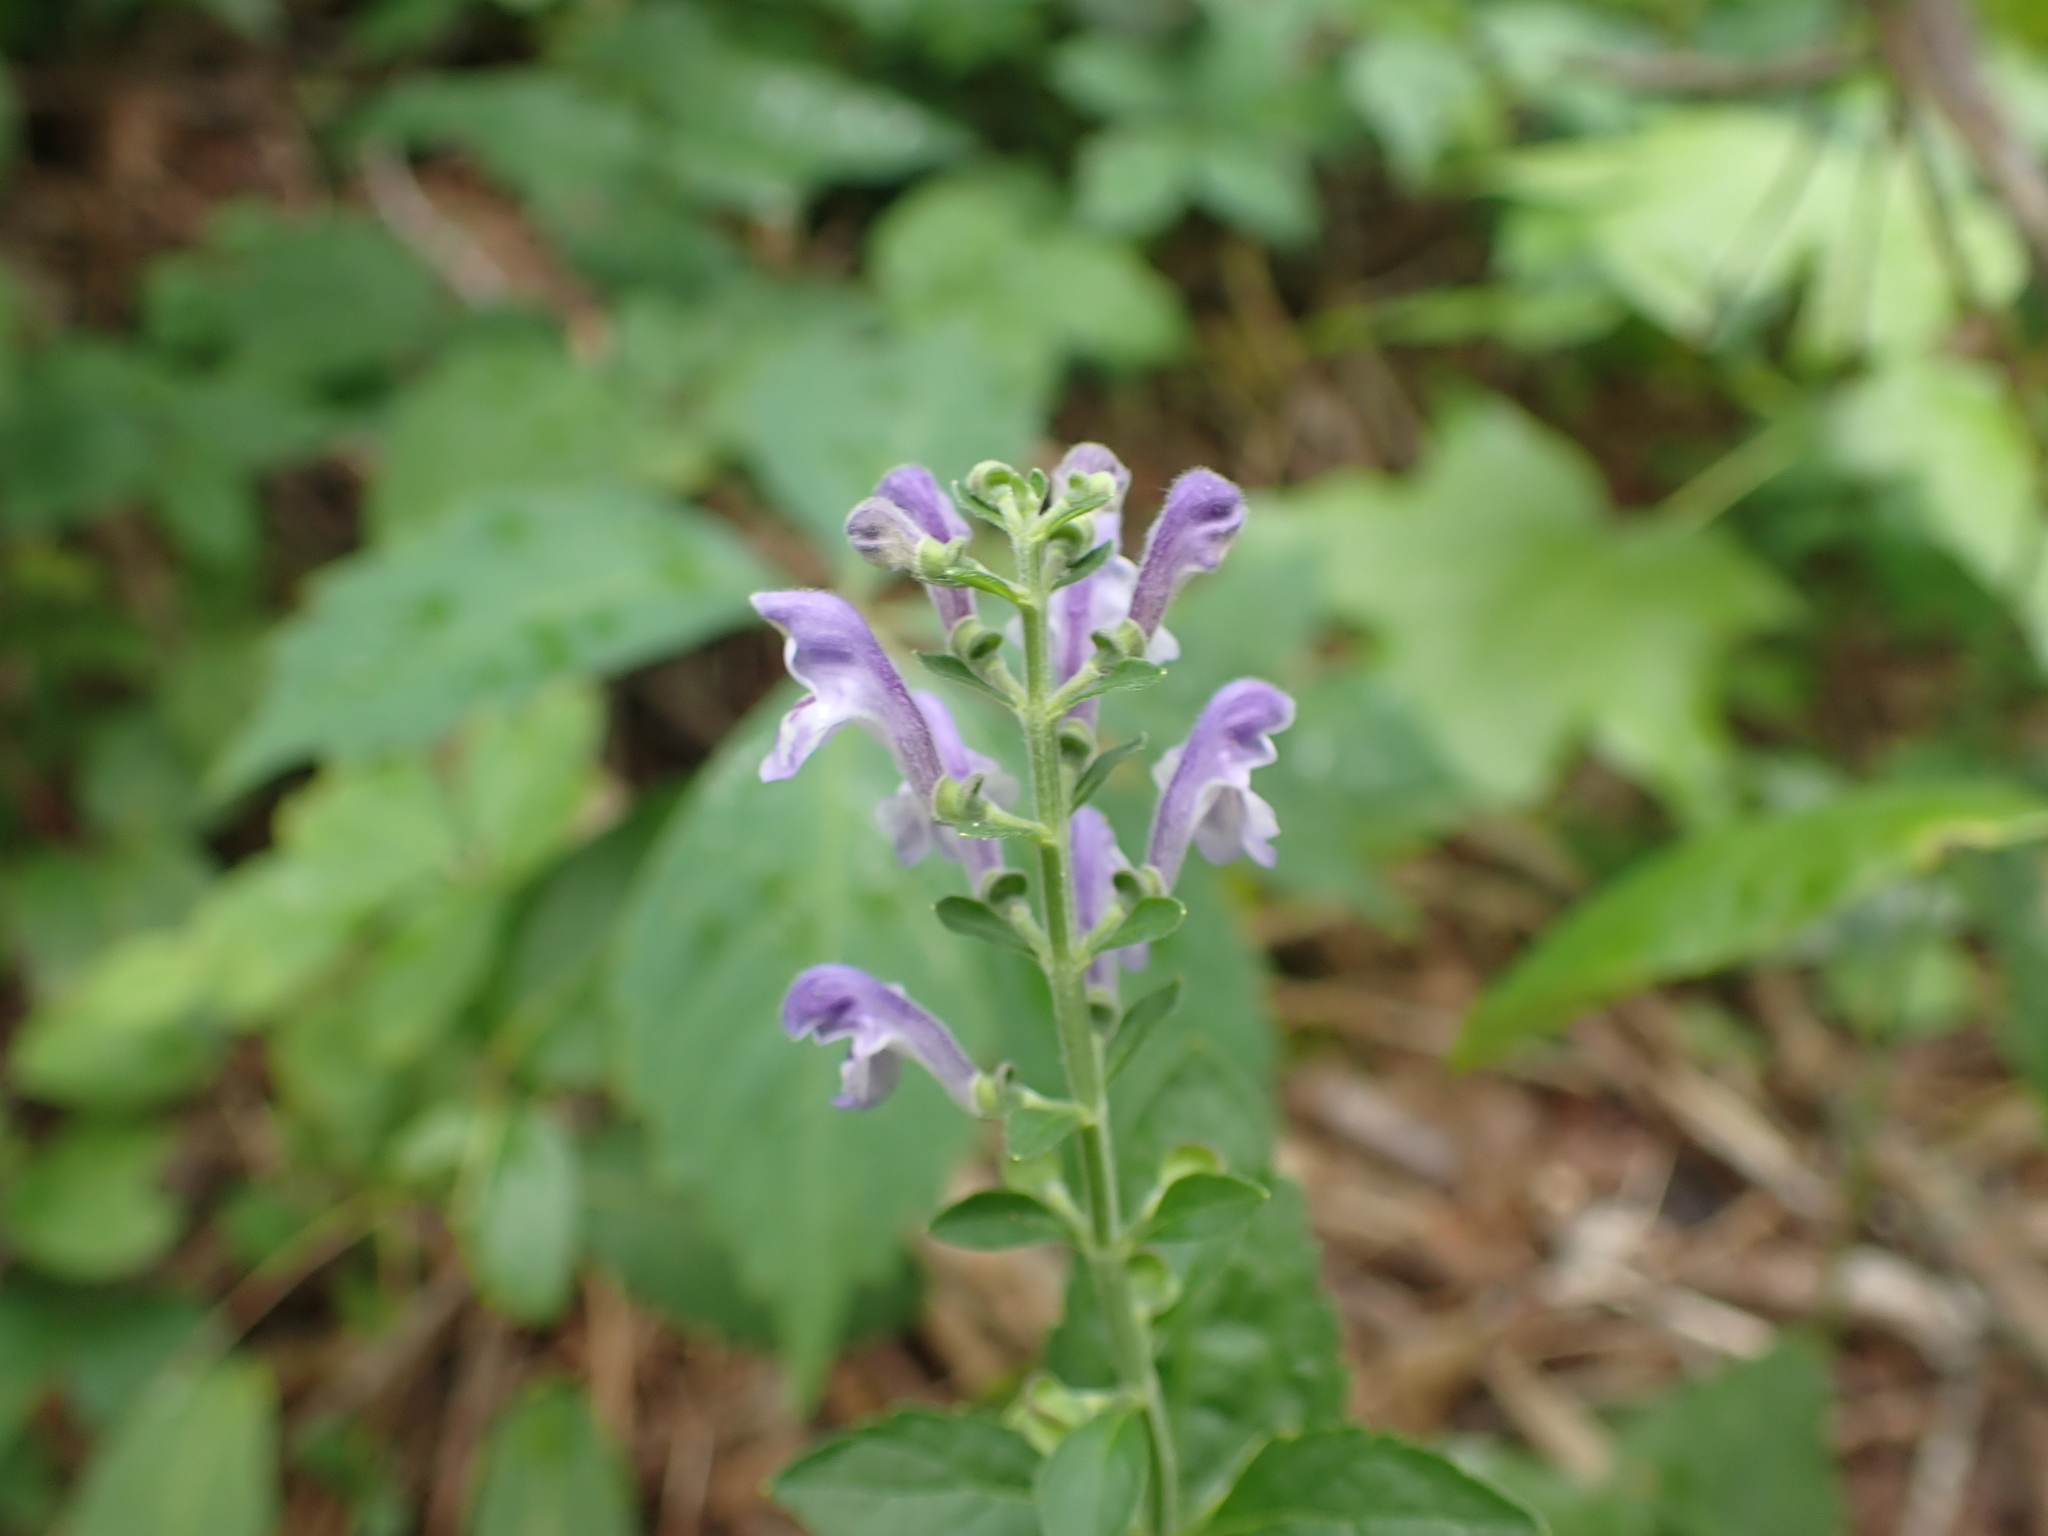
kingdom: Plantae
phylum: Tracheophyta
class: Magnoliopsida
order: Lamiales
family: Lamiaceae
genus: Scutellaria
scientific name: Scutellaria elliptica
